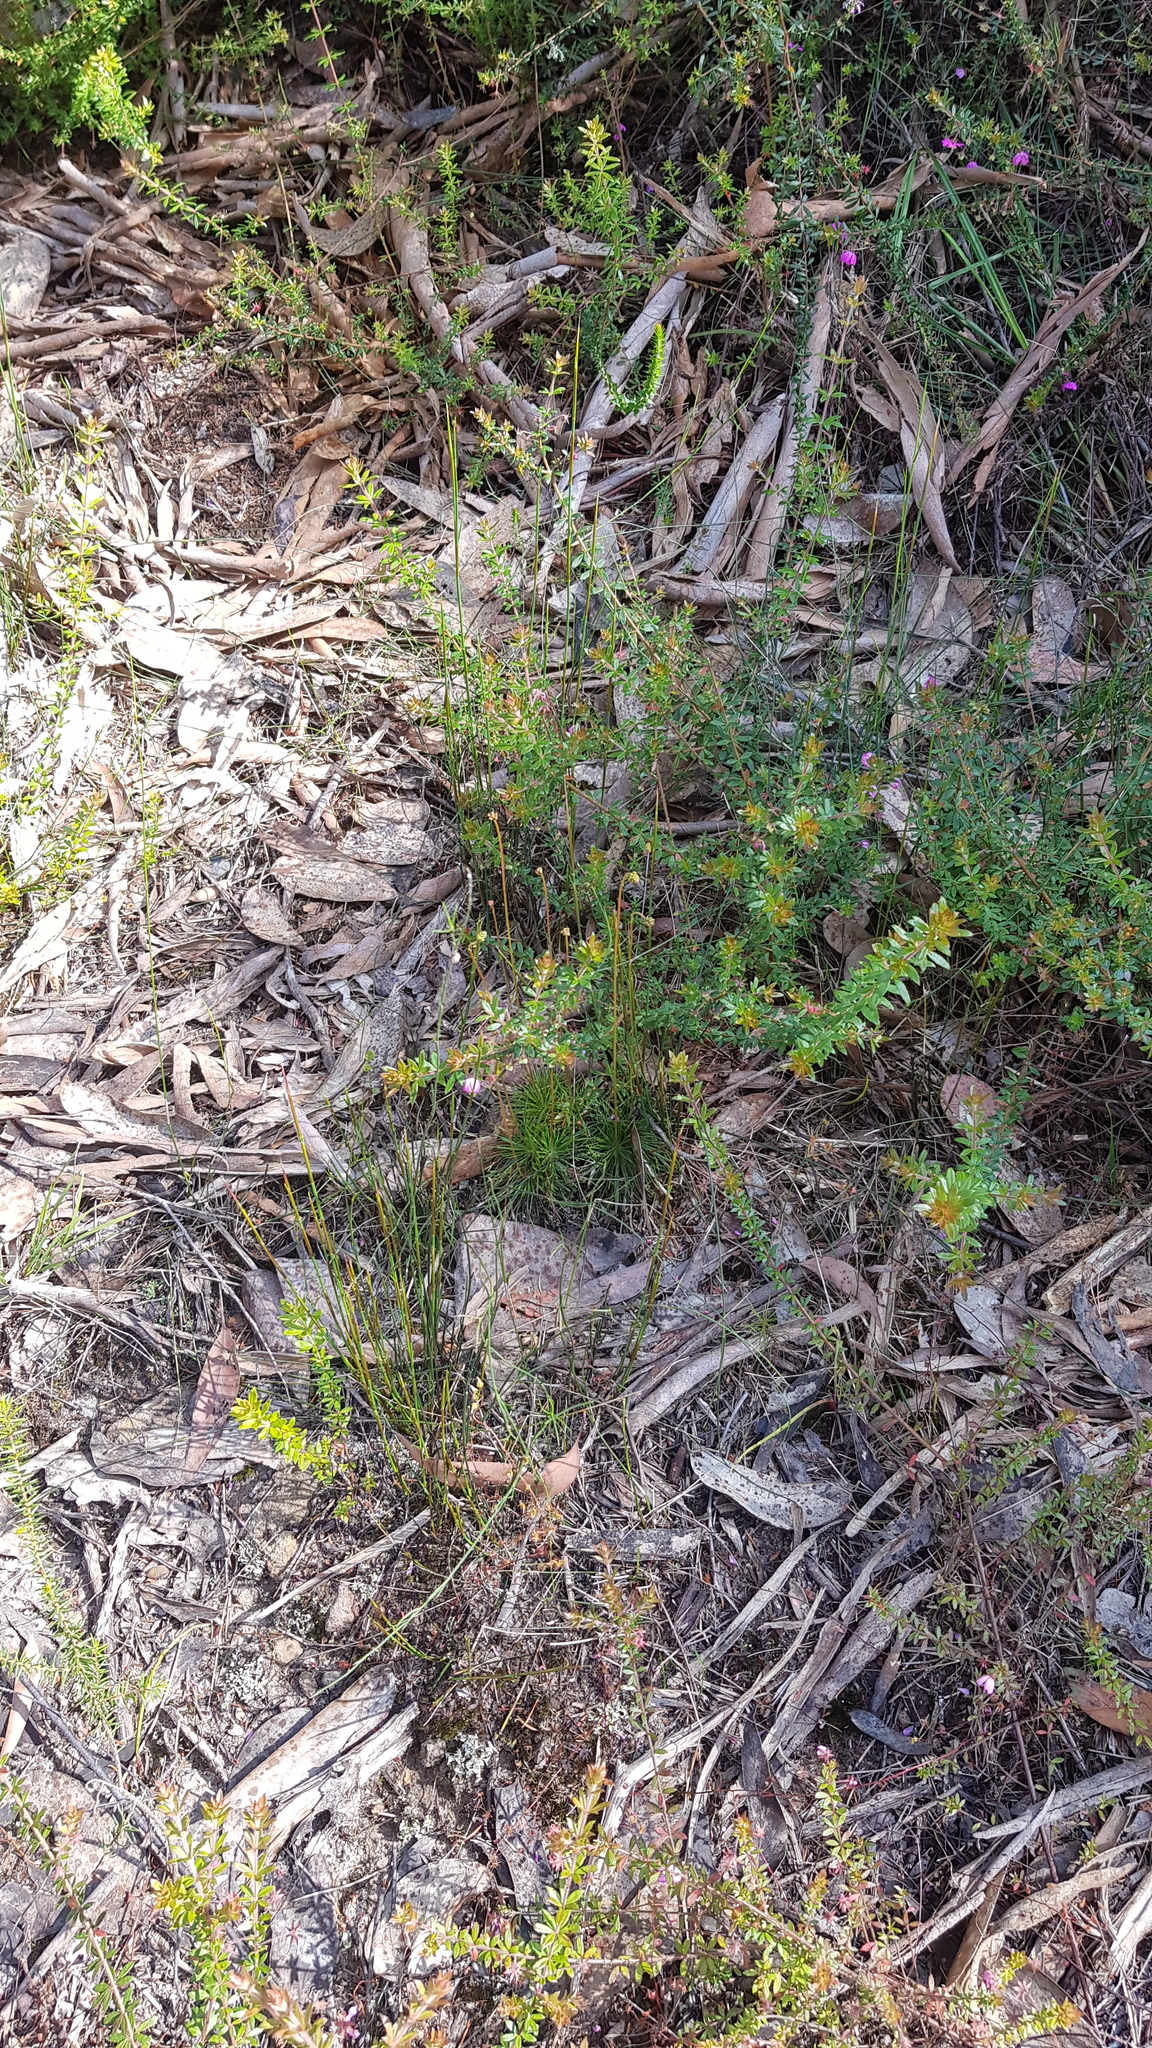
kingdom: Plantae
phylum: Tracheophyta
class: Magnoliopsida
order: Asterales
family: Stylidiaceae
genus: Stylidium
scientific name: Stylidium lineare
